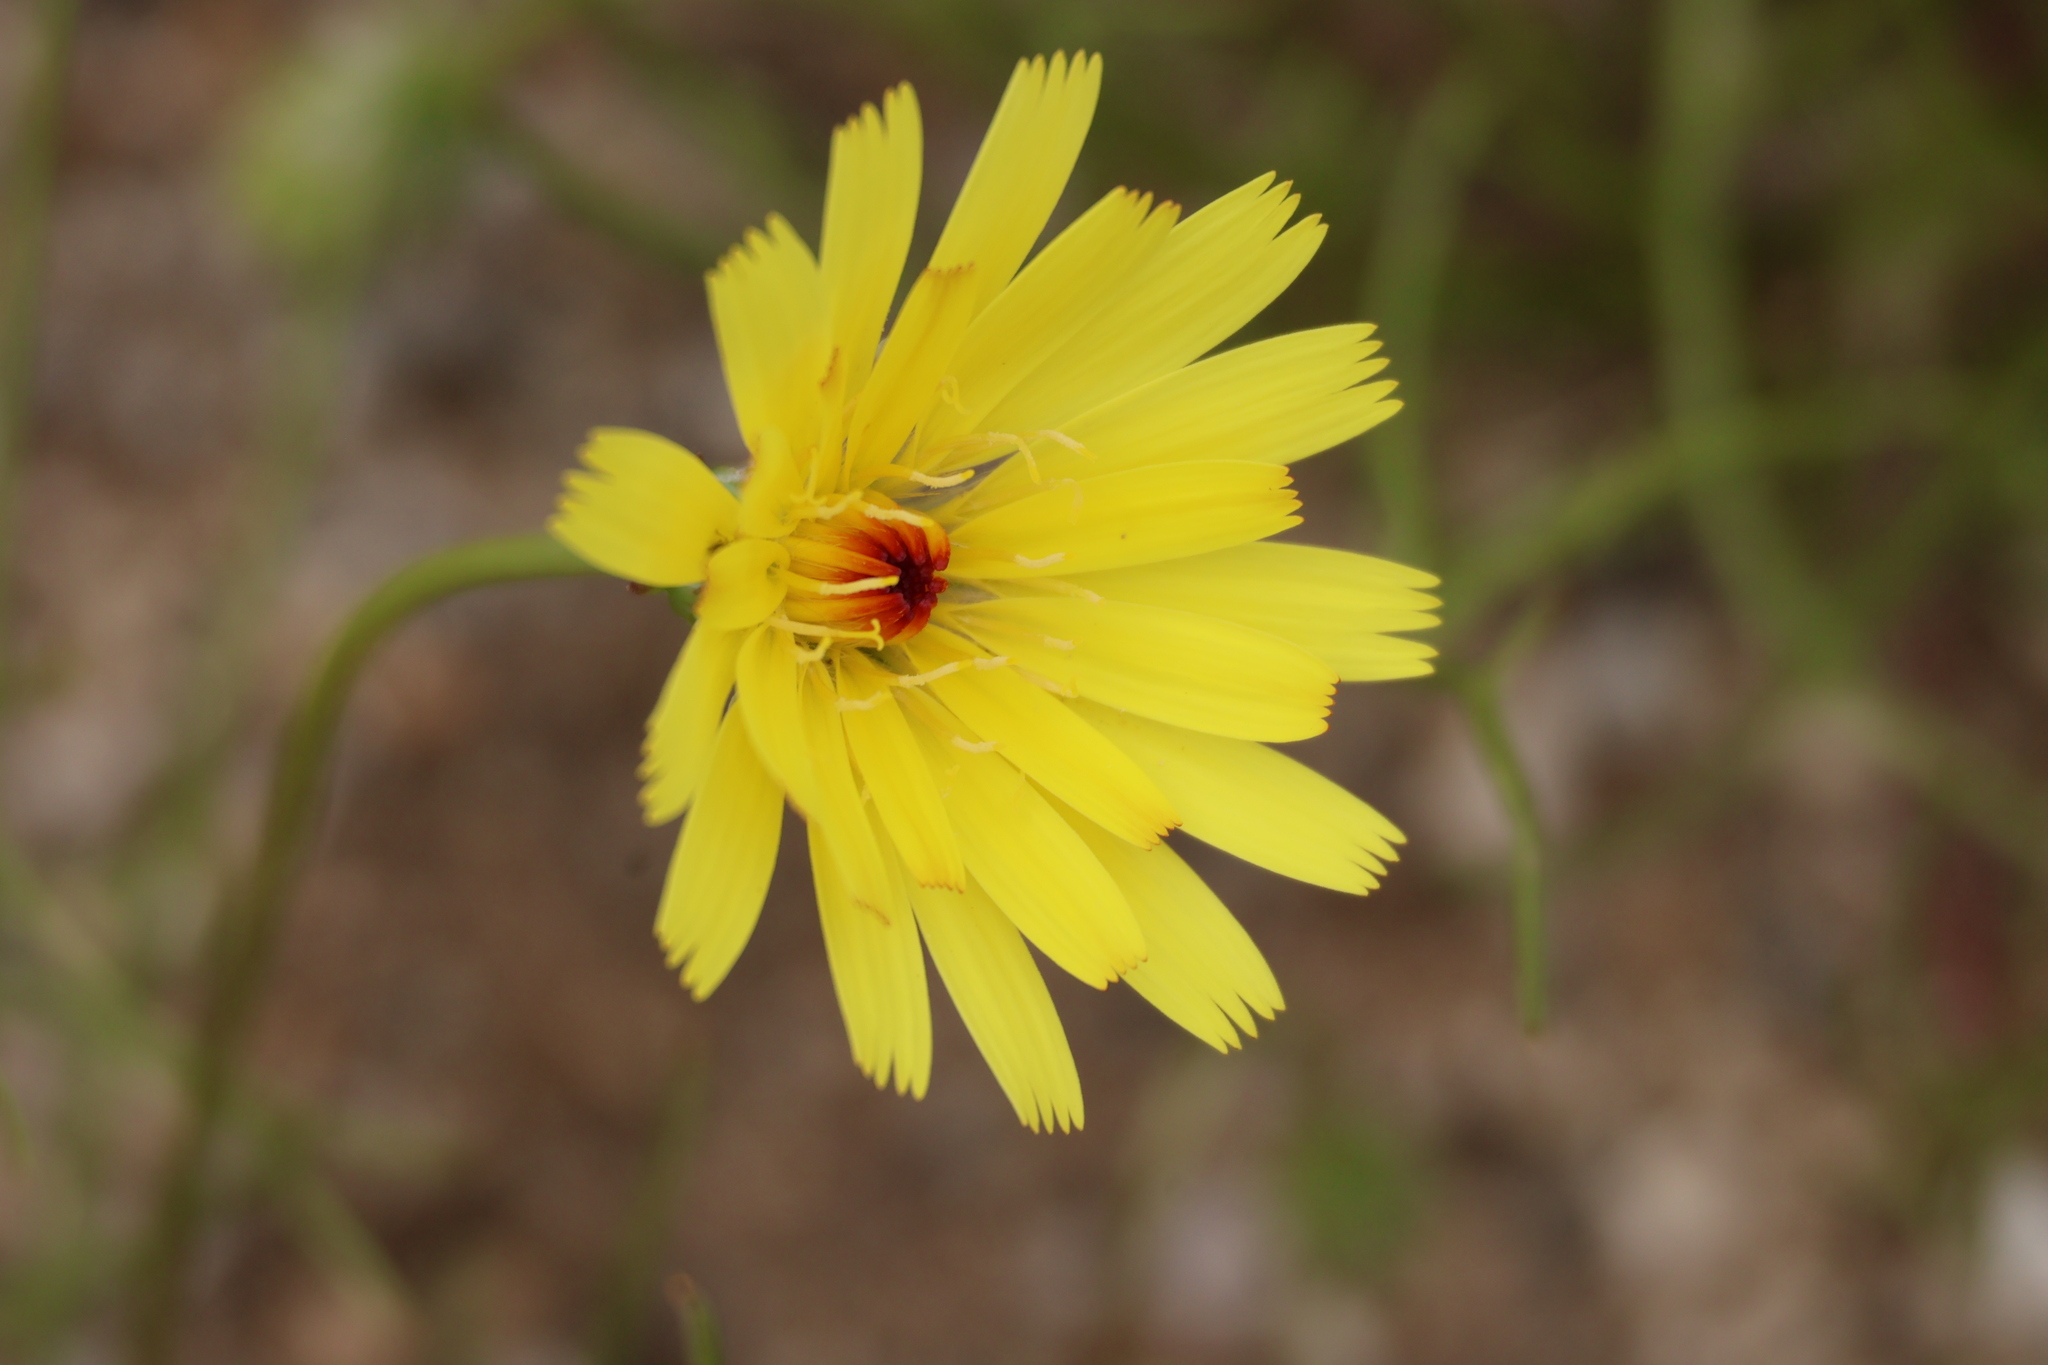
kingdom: Plantae
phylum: Tracheophyta
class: Magnoliopsida
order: Asterales
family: Asteraceae
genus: Malacothrix
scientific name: Malacothrix glabrata
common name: Smooth desert-dandelion
